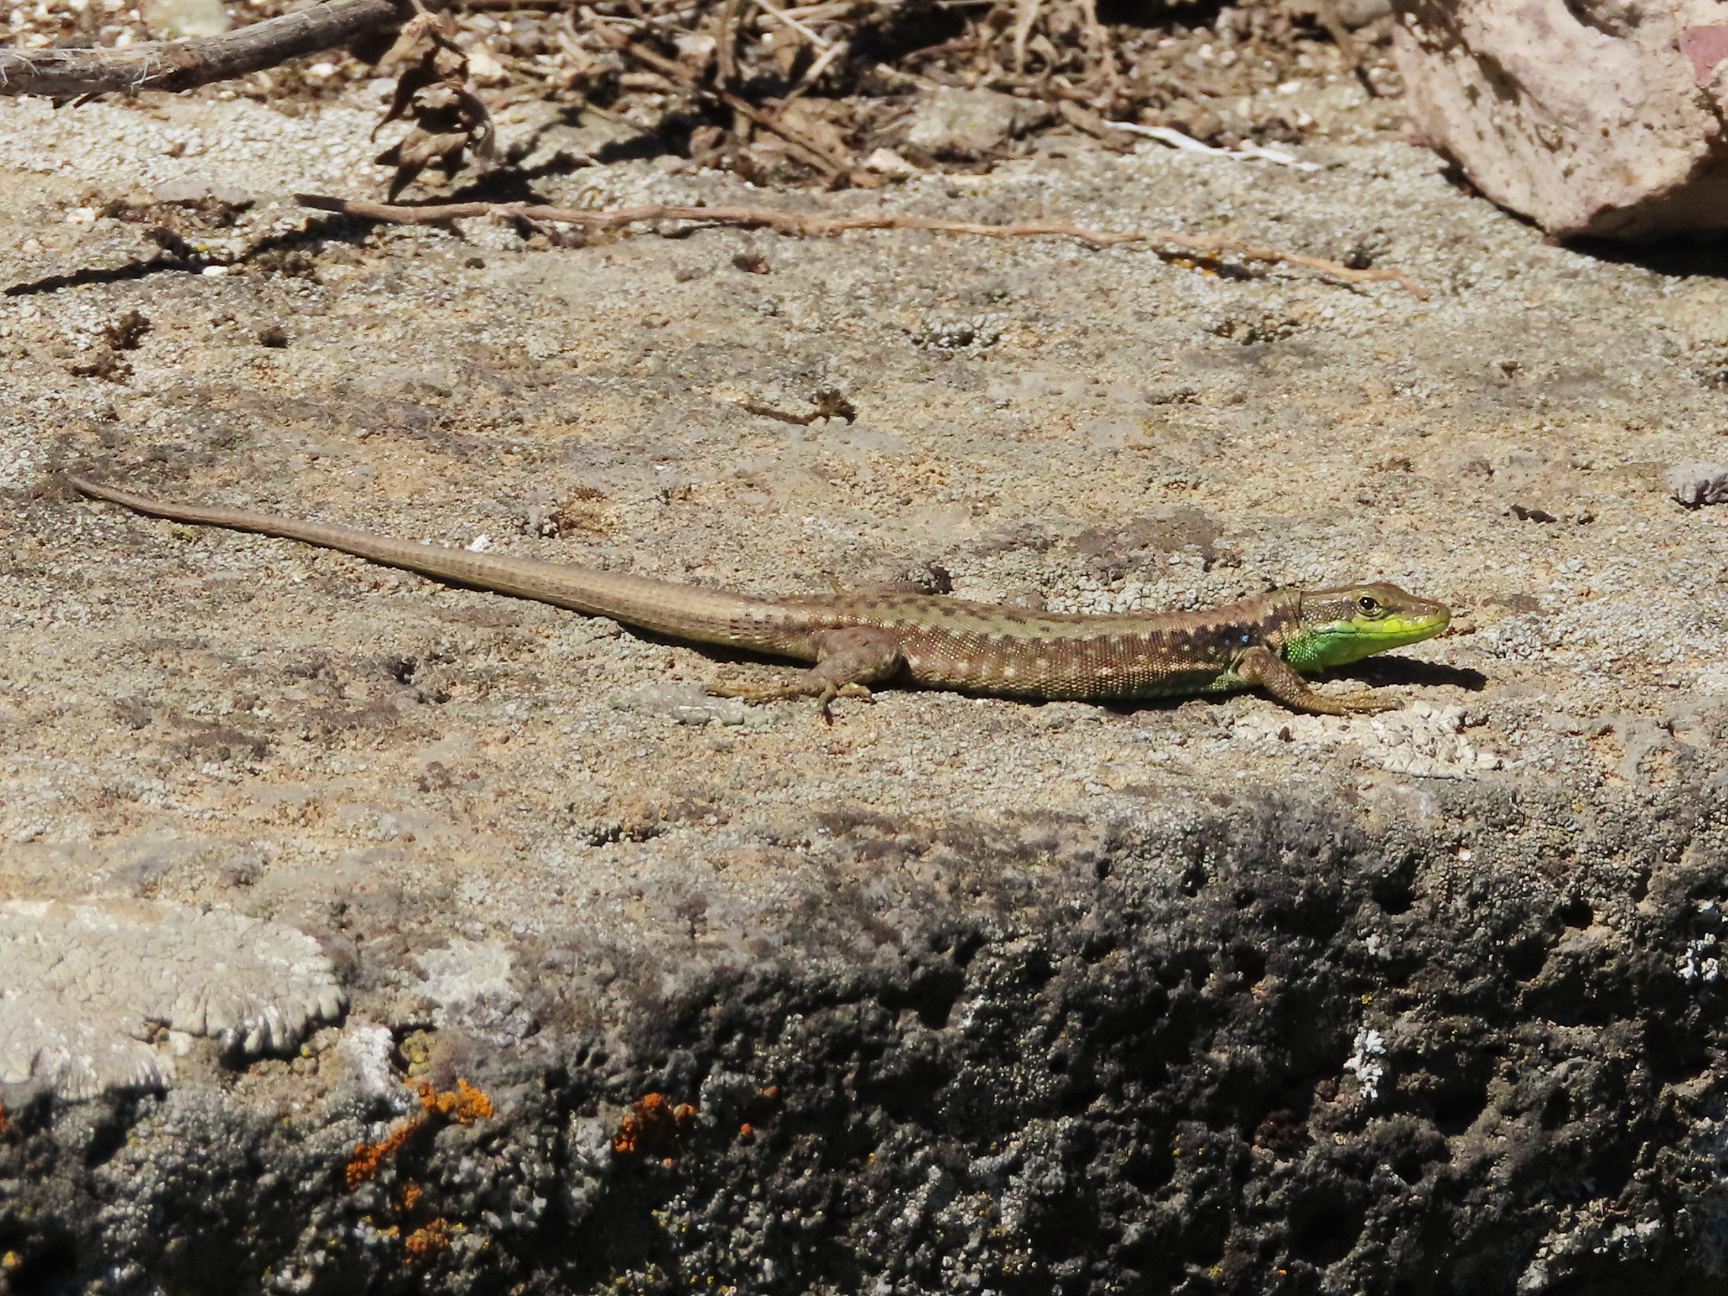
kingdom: Animalia
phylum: Chordata
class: Squamata
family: Lacertidae
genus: Darevskia
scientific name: Darevskia raddei
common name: Radde's lizard
